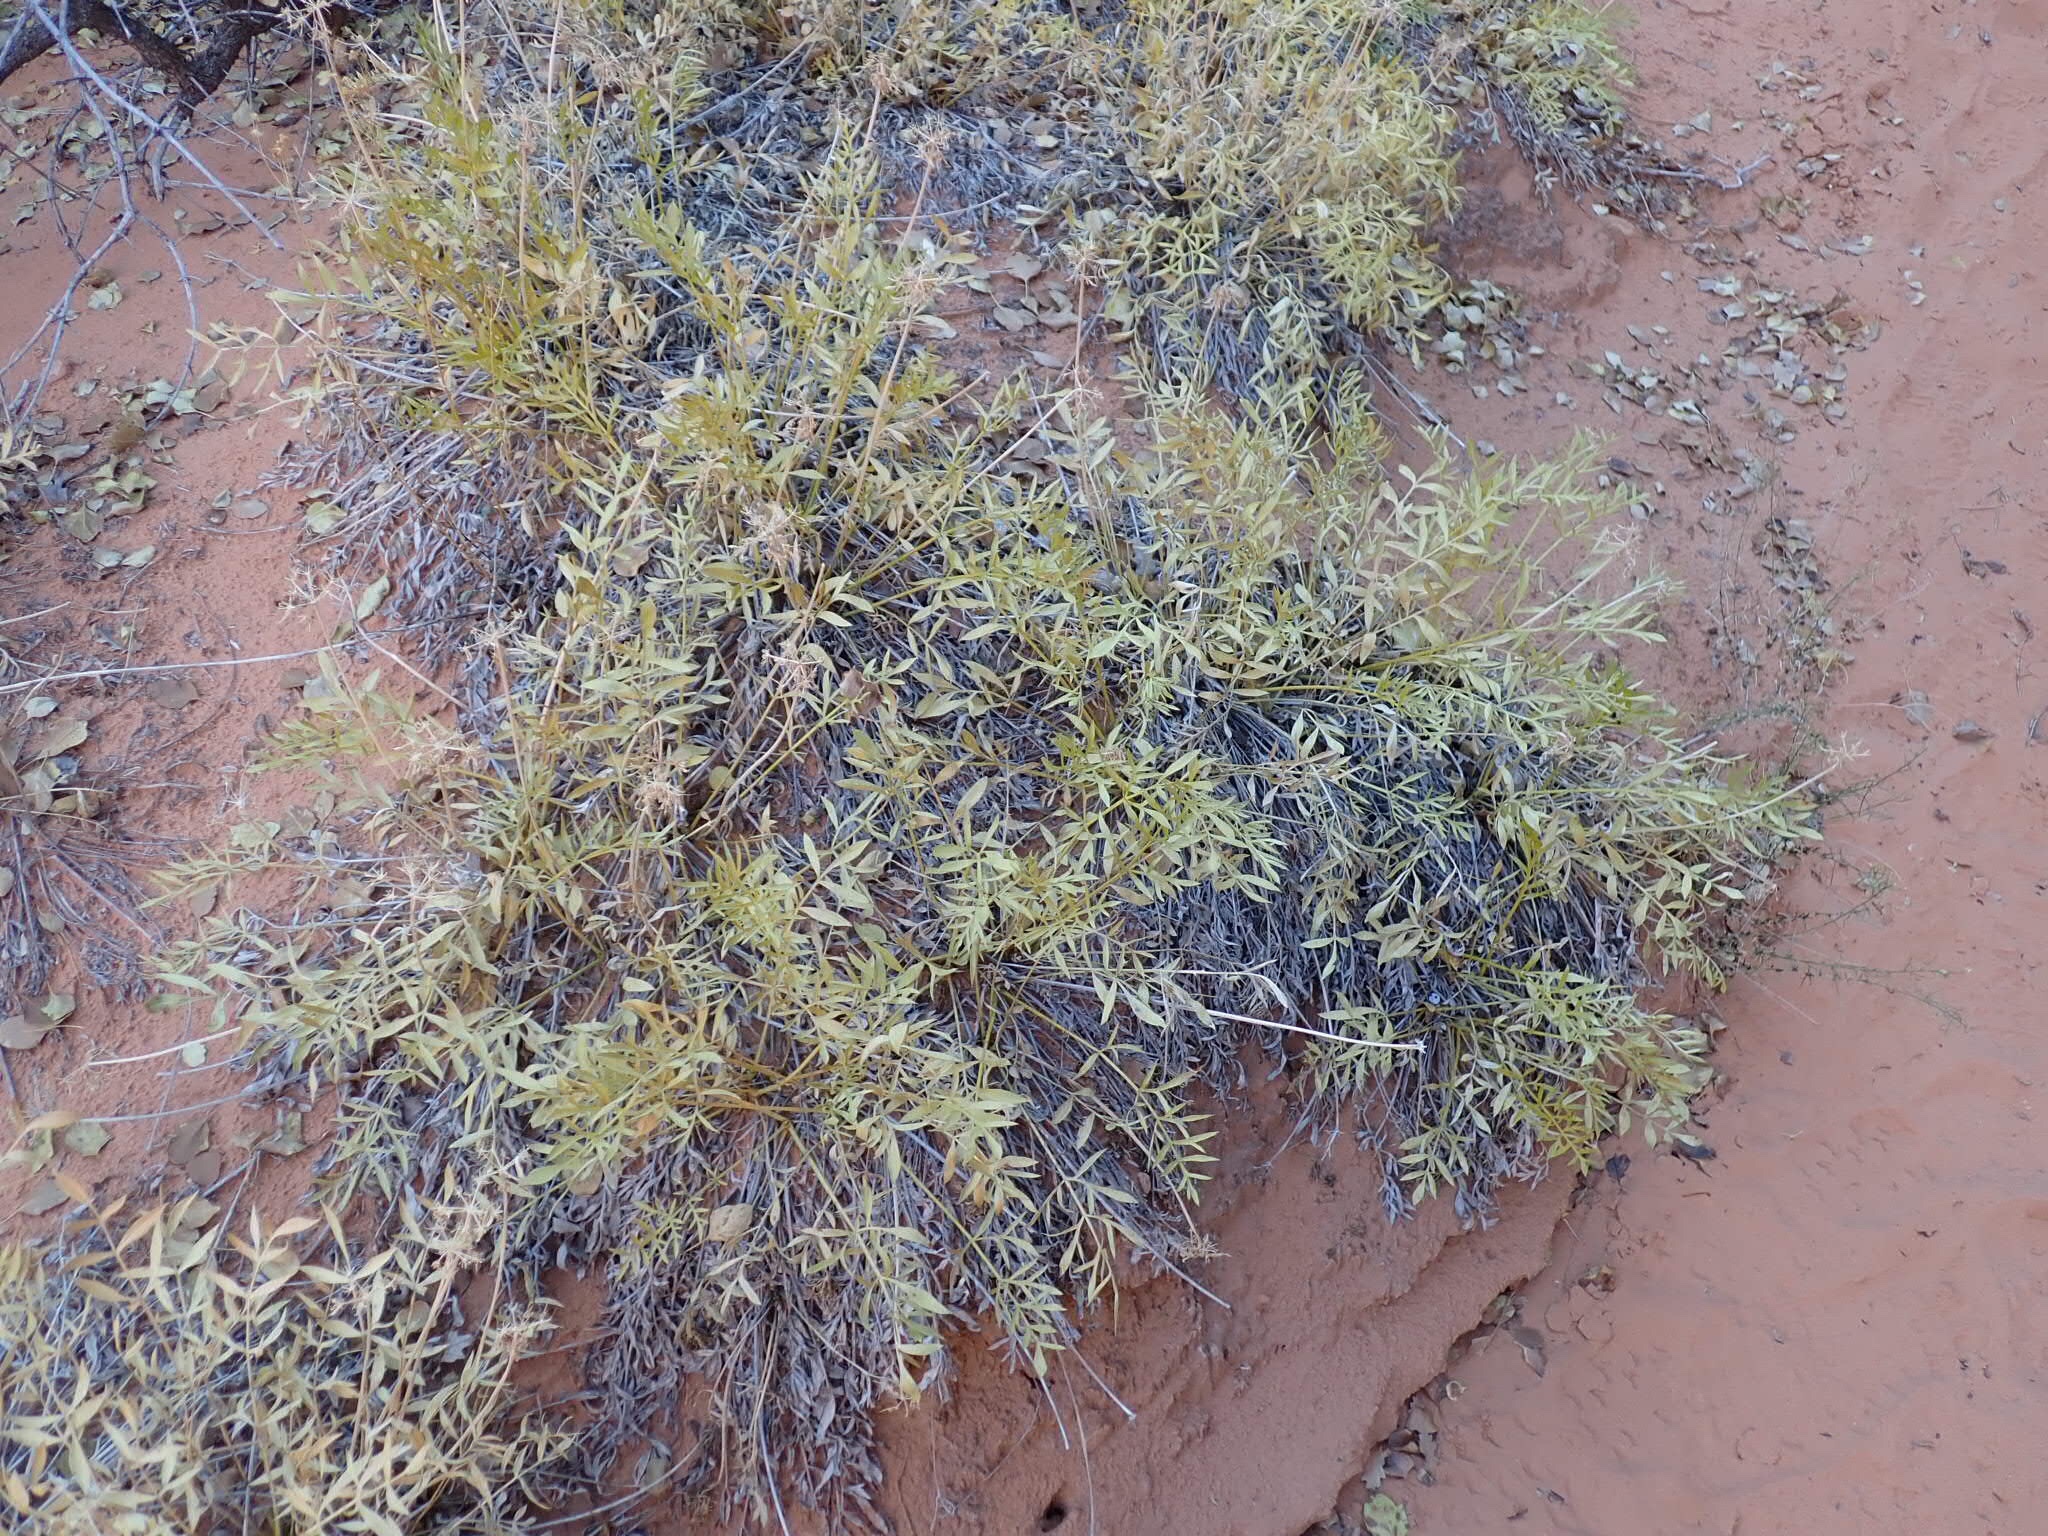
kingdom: Plantae
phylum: Tracheophyta
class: Magnoliopsida
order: Apiales
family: Apiaceae
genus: Lomatium
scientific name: Lomatium latilobum
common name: Canyonlands lomatium
